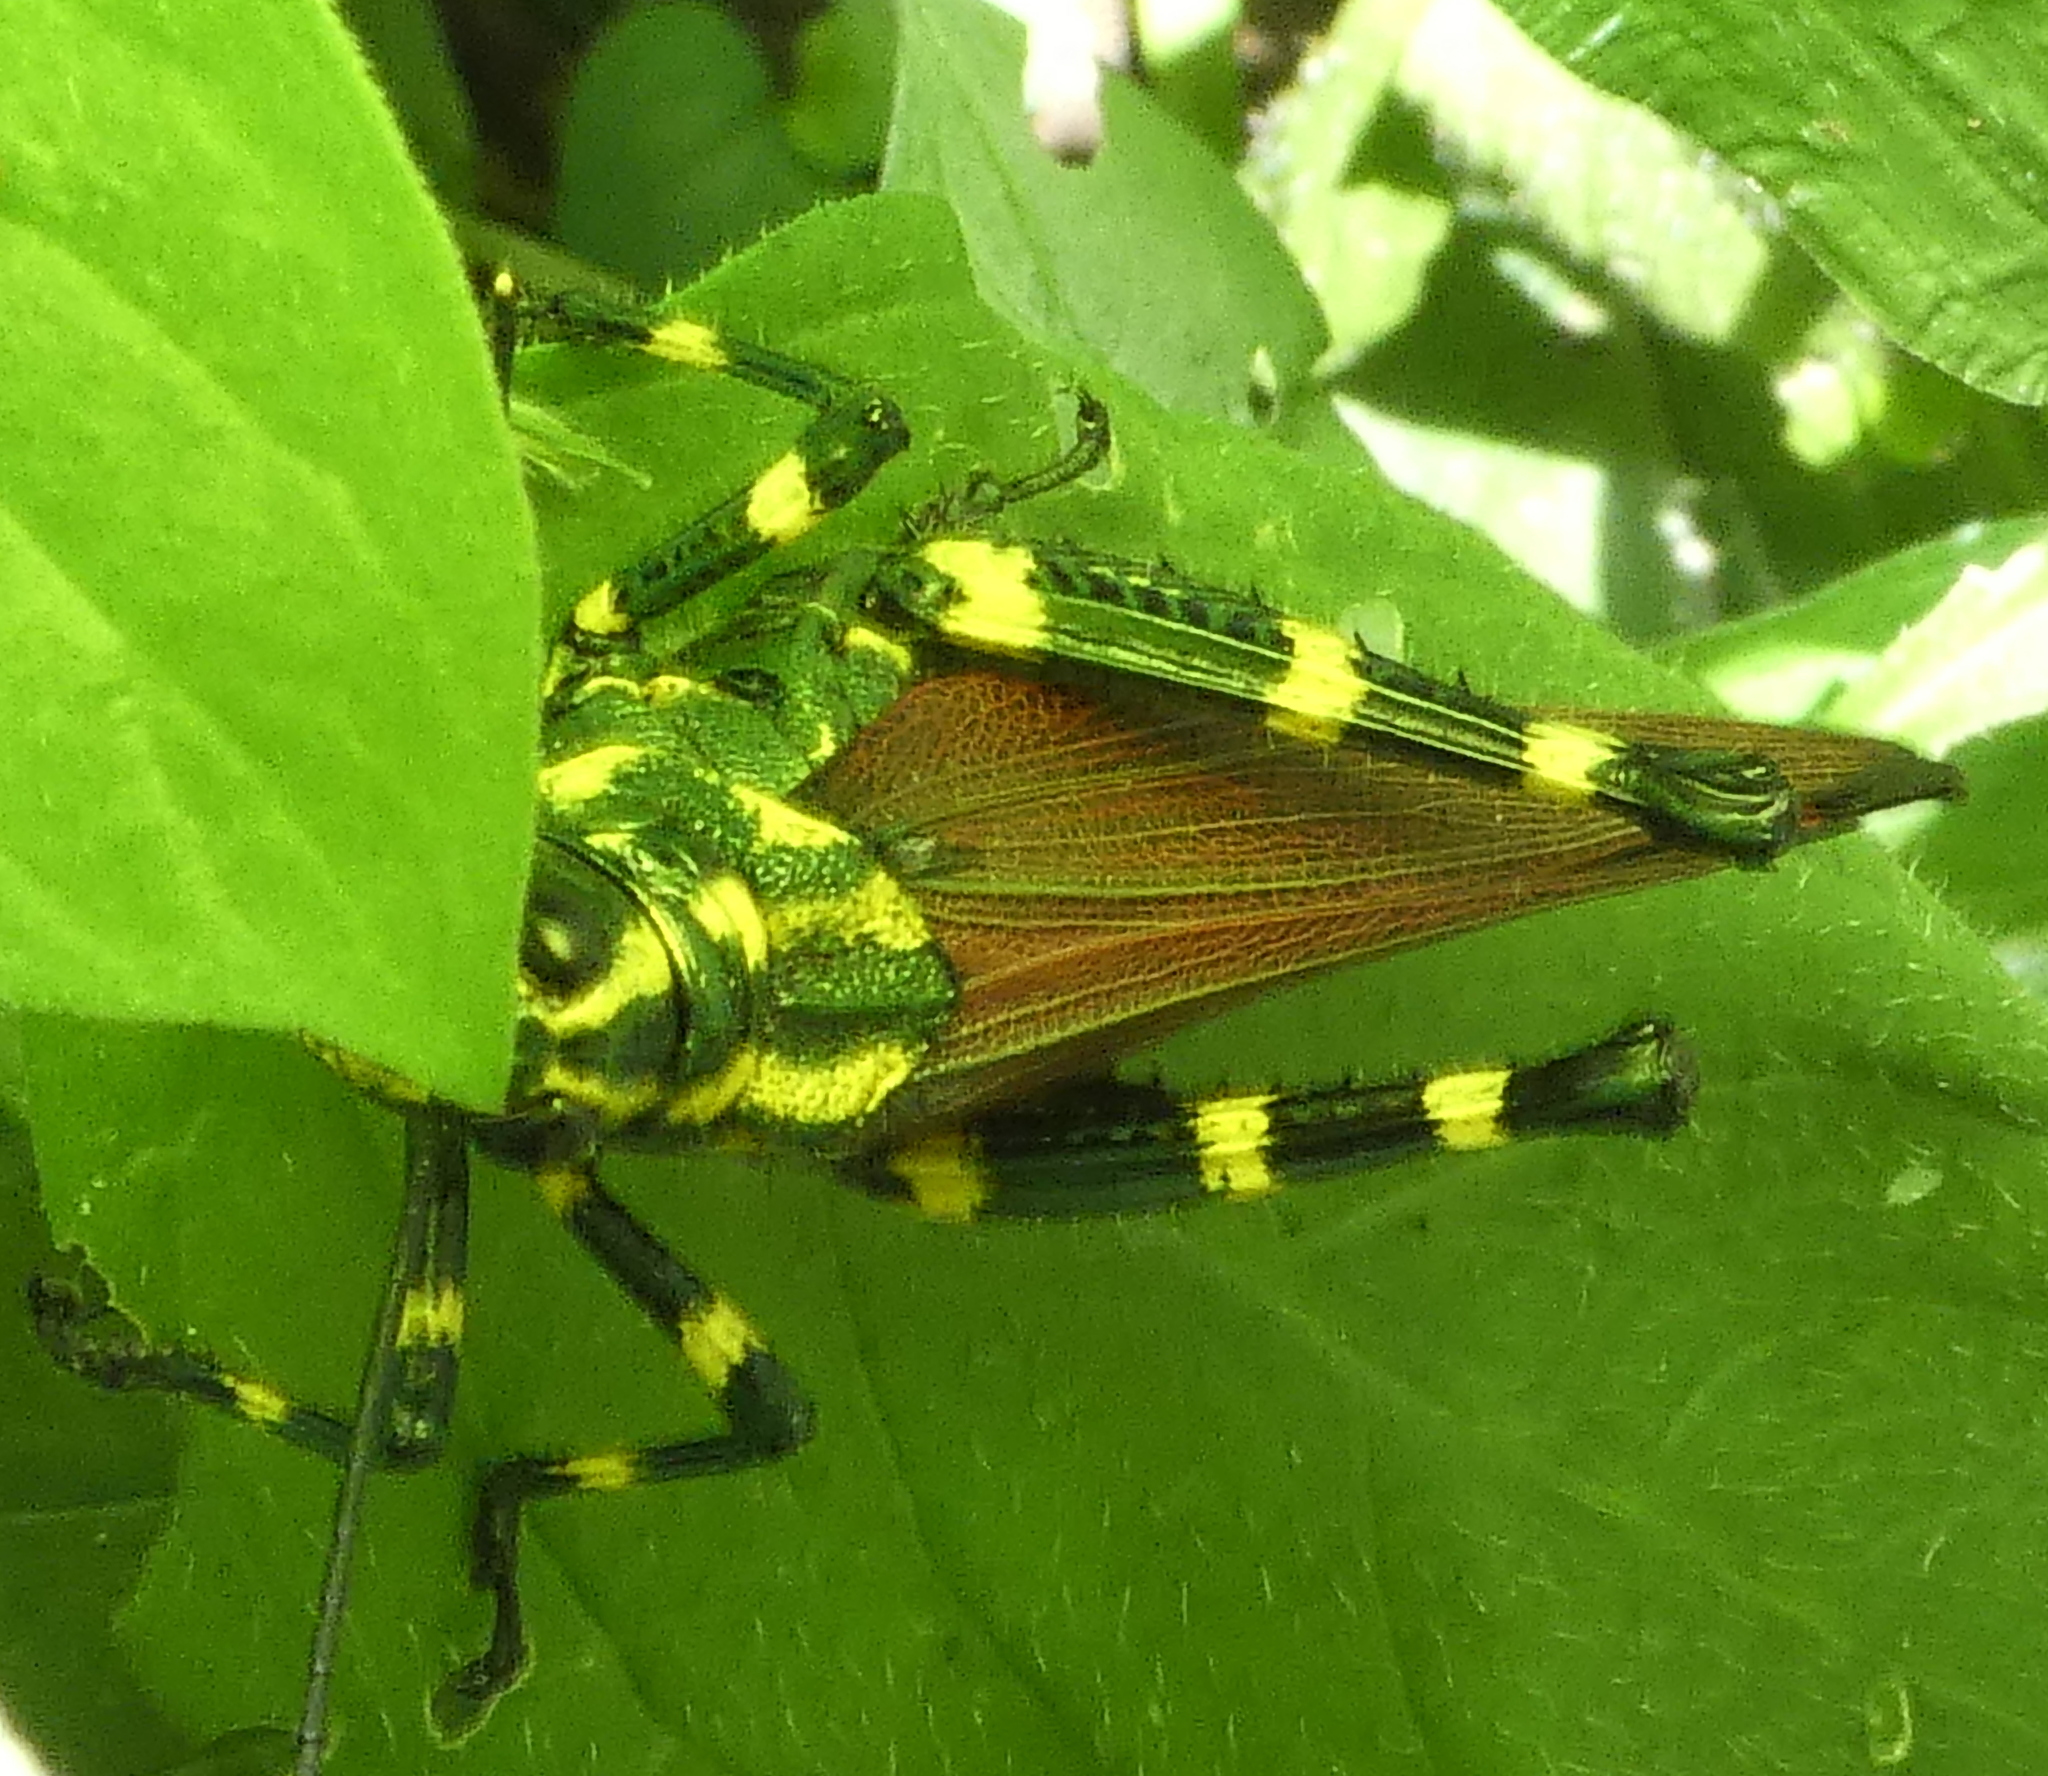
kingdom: Animalia
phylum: Arthropoda
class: Insecta
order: Orthoptera
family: Romaleidae
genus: Chromacris
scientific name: Chromacris speciosa
